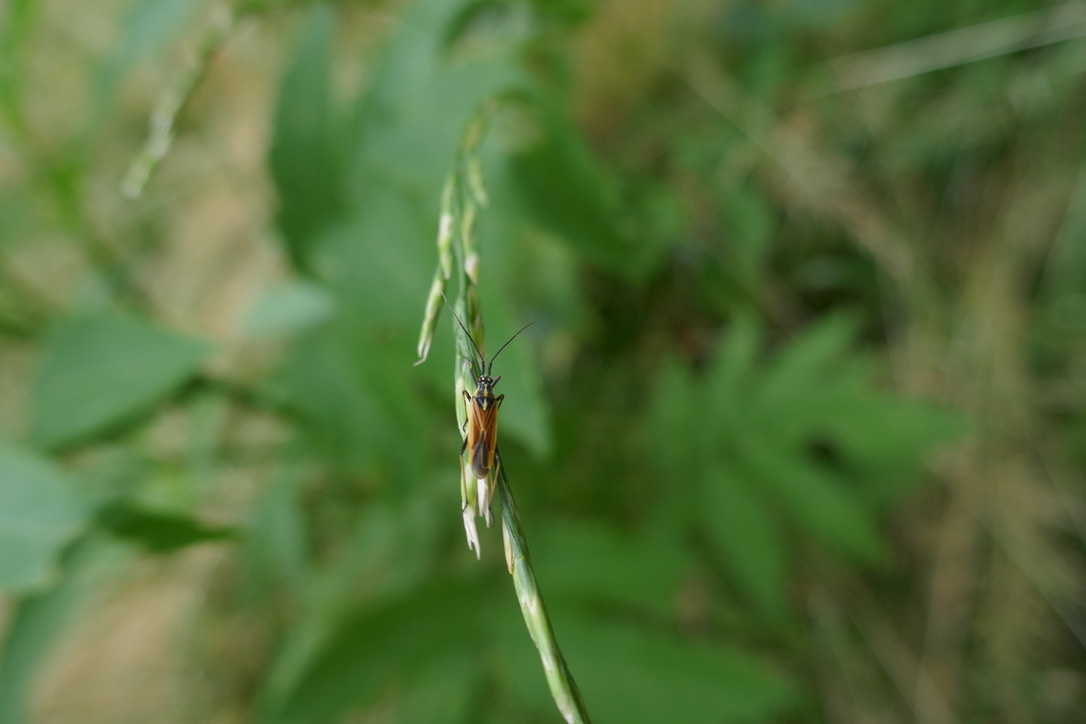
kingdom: Animalia
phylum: Arthropoda
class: Insecta
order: Hemiptera
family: Miridae
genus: Leptopterna
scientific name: Leptopterna dolabrata
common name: Meadow plant bug
